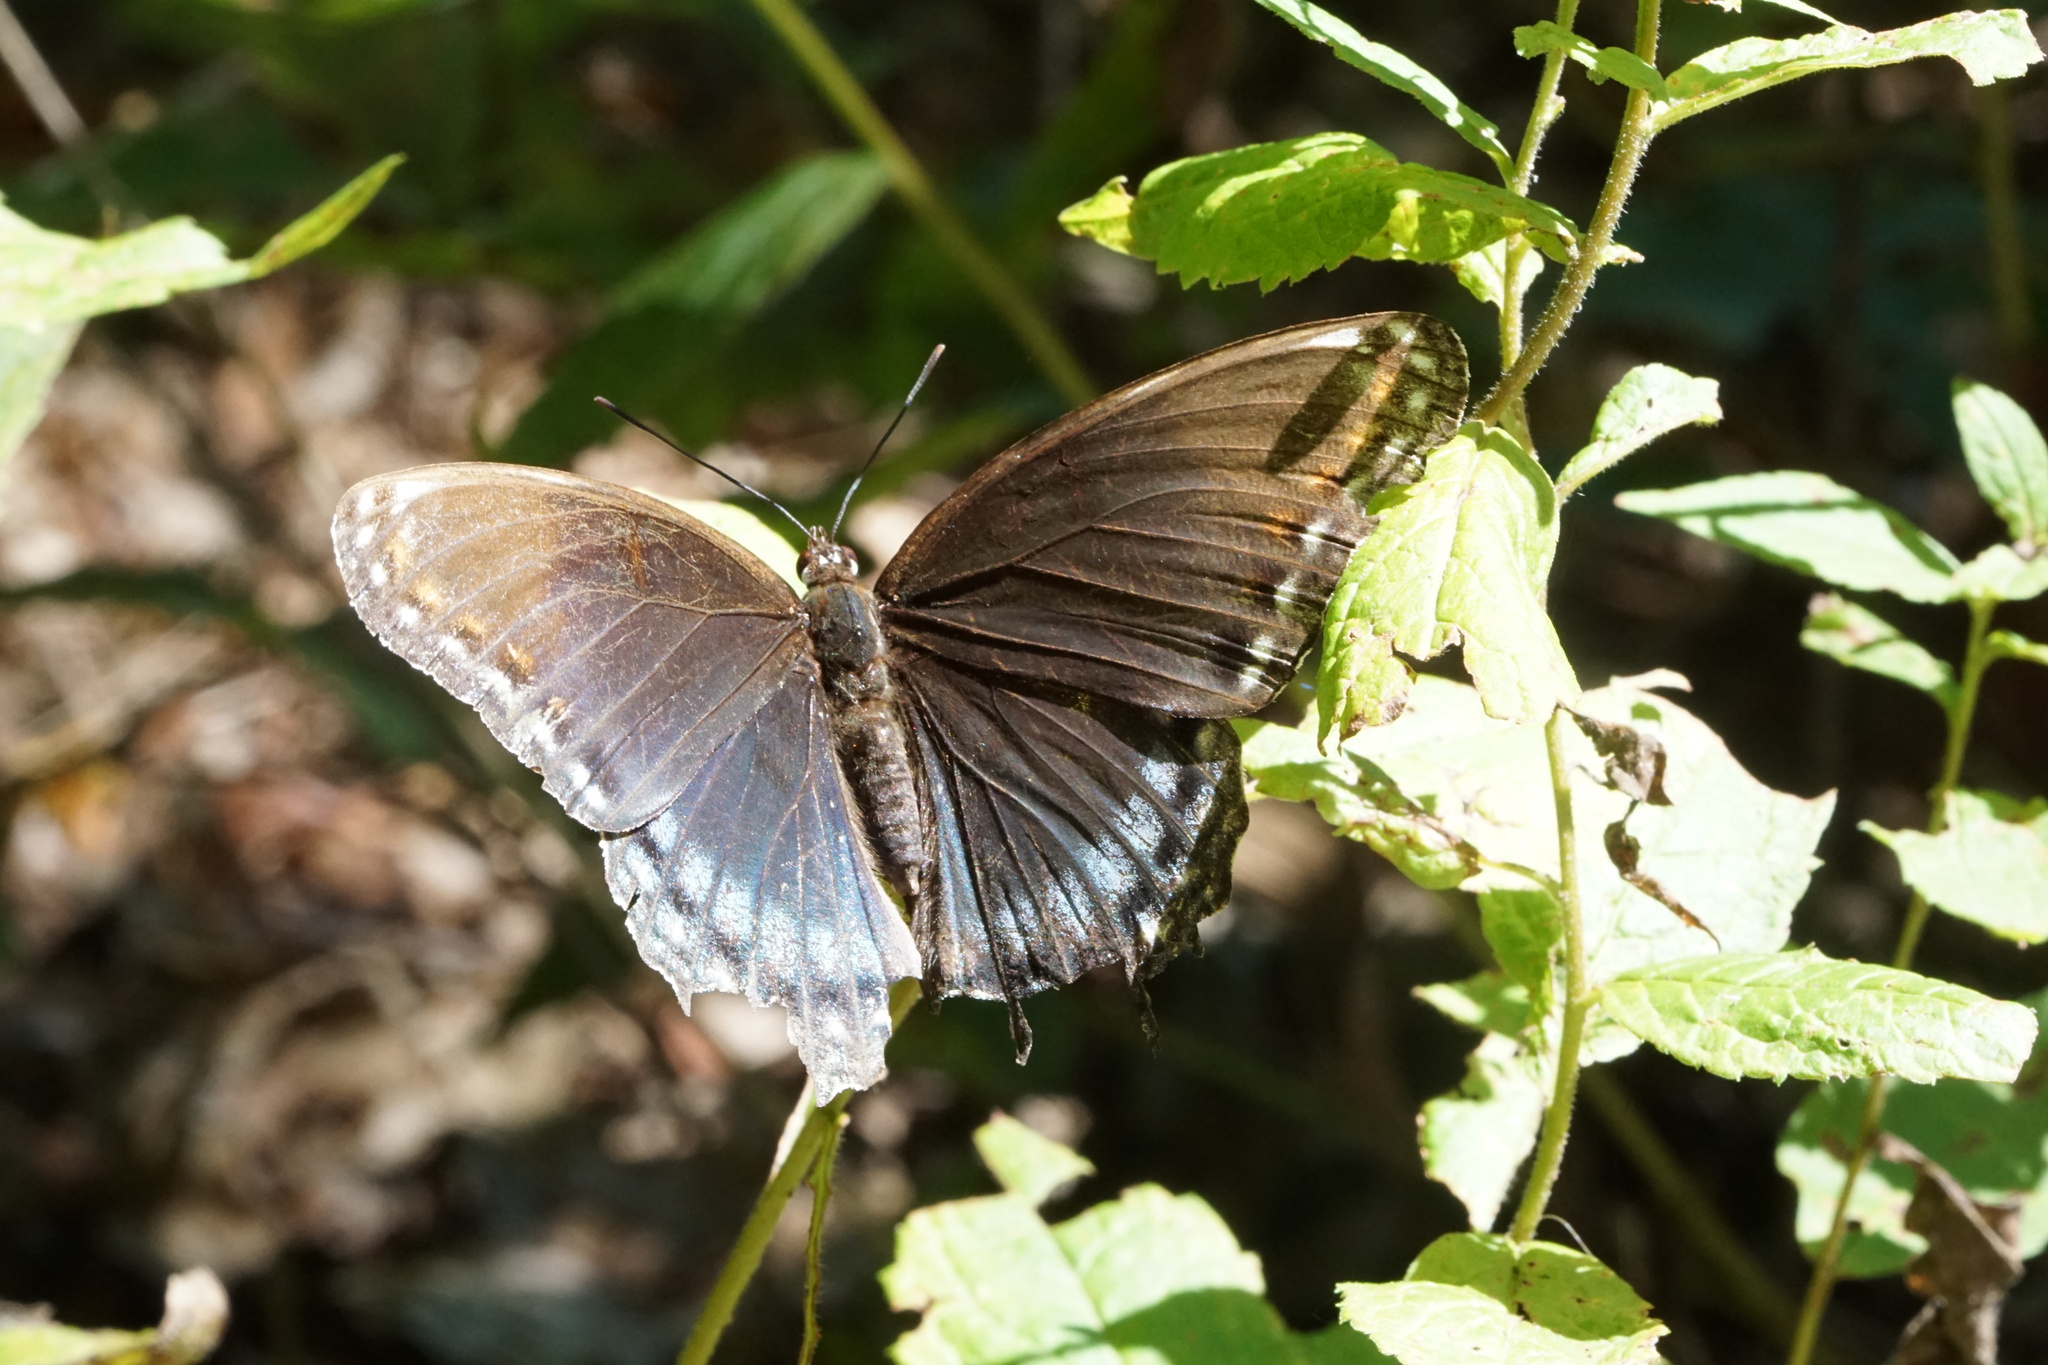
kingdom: Animalia
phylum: Arthropoda
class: Insecta
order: Lepidoptera
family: Nymphalidae
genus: Limenitis
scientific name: Limenitis arthemis
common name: Red-spotted admiral
